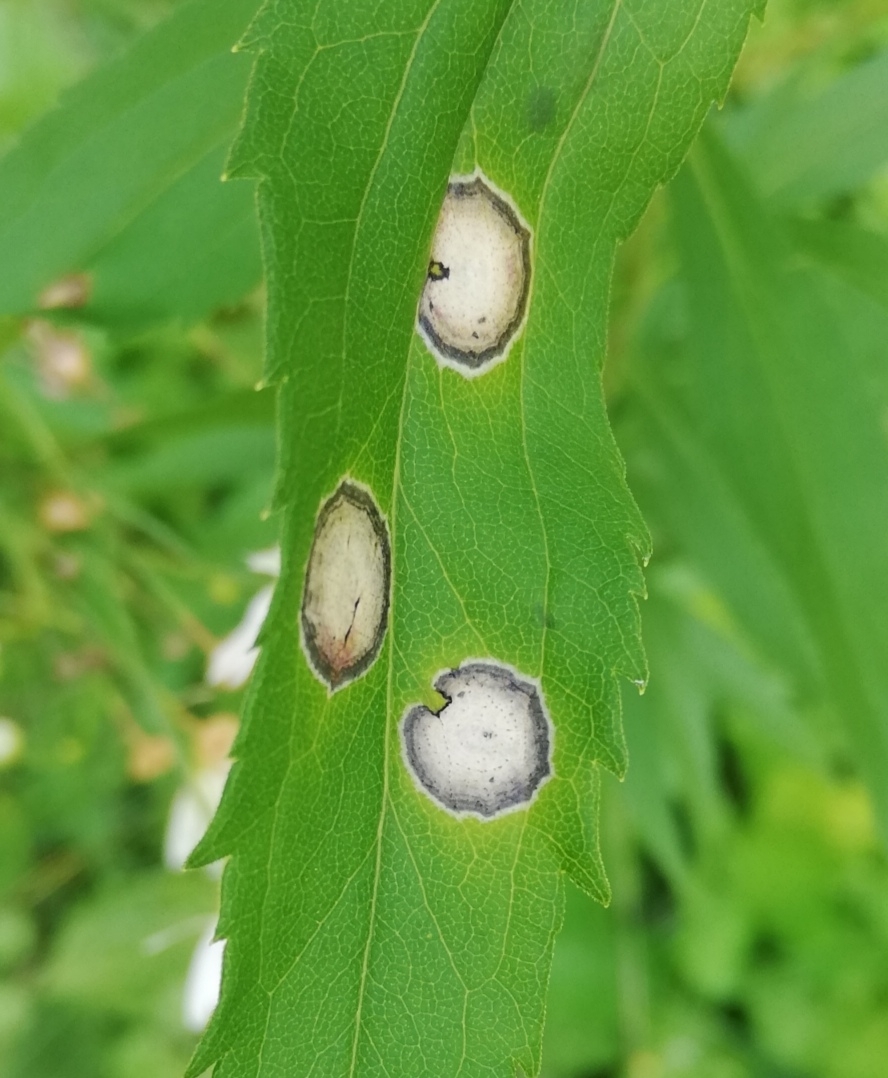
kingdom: Animalia
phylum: Arthropoda
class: Insecta
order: Diptera
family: Cecidomyiidae
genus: Asteromyia
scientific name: Asteromyia carbonifera
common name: Carbonifera goldenrod gall midge
